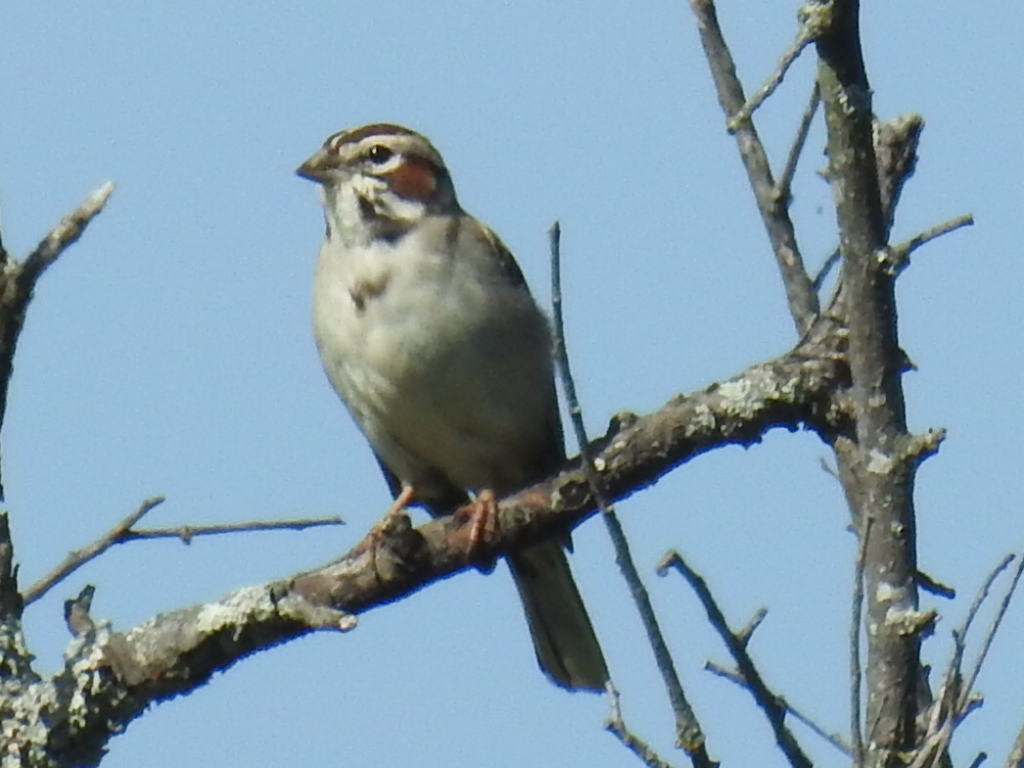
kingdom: Animalia
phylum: Chordata
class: Aves
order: Passeriformes
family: Passerellidae
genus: Chondestes
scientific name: Chondestes grammacus
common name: Lark sparrow
